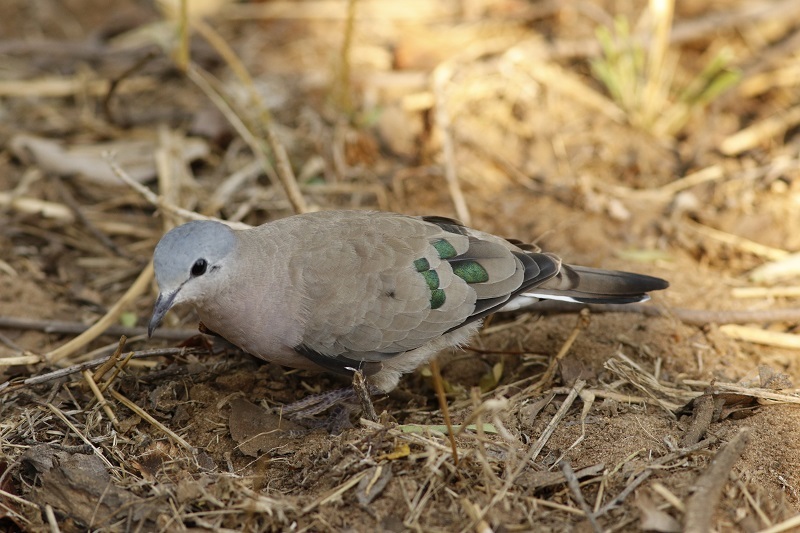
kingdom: Animalia
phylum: Chordata
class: Aves
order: Columbiformes
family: Columbidae
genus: Turtur
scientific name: Turtur chalcospilos
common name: Emerald-spotted wood dove
